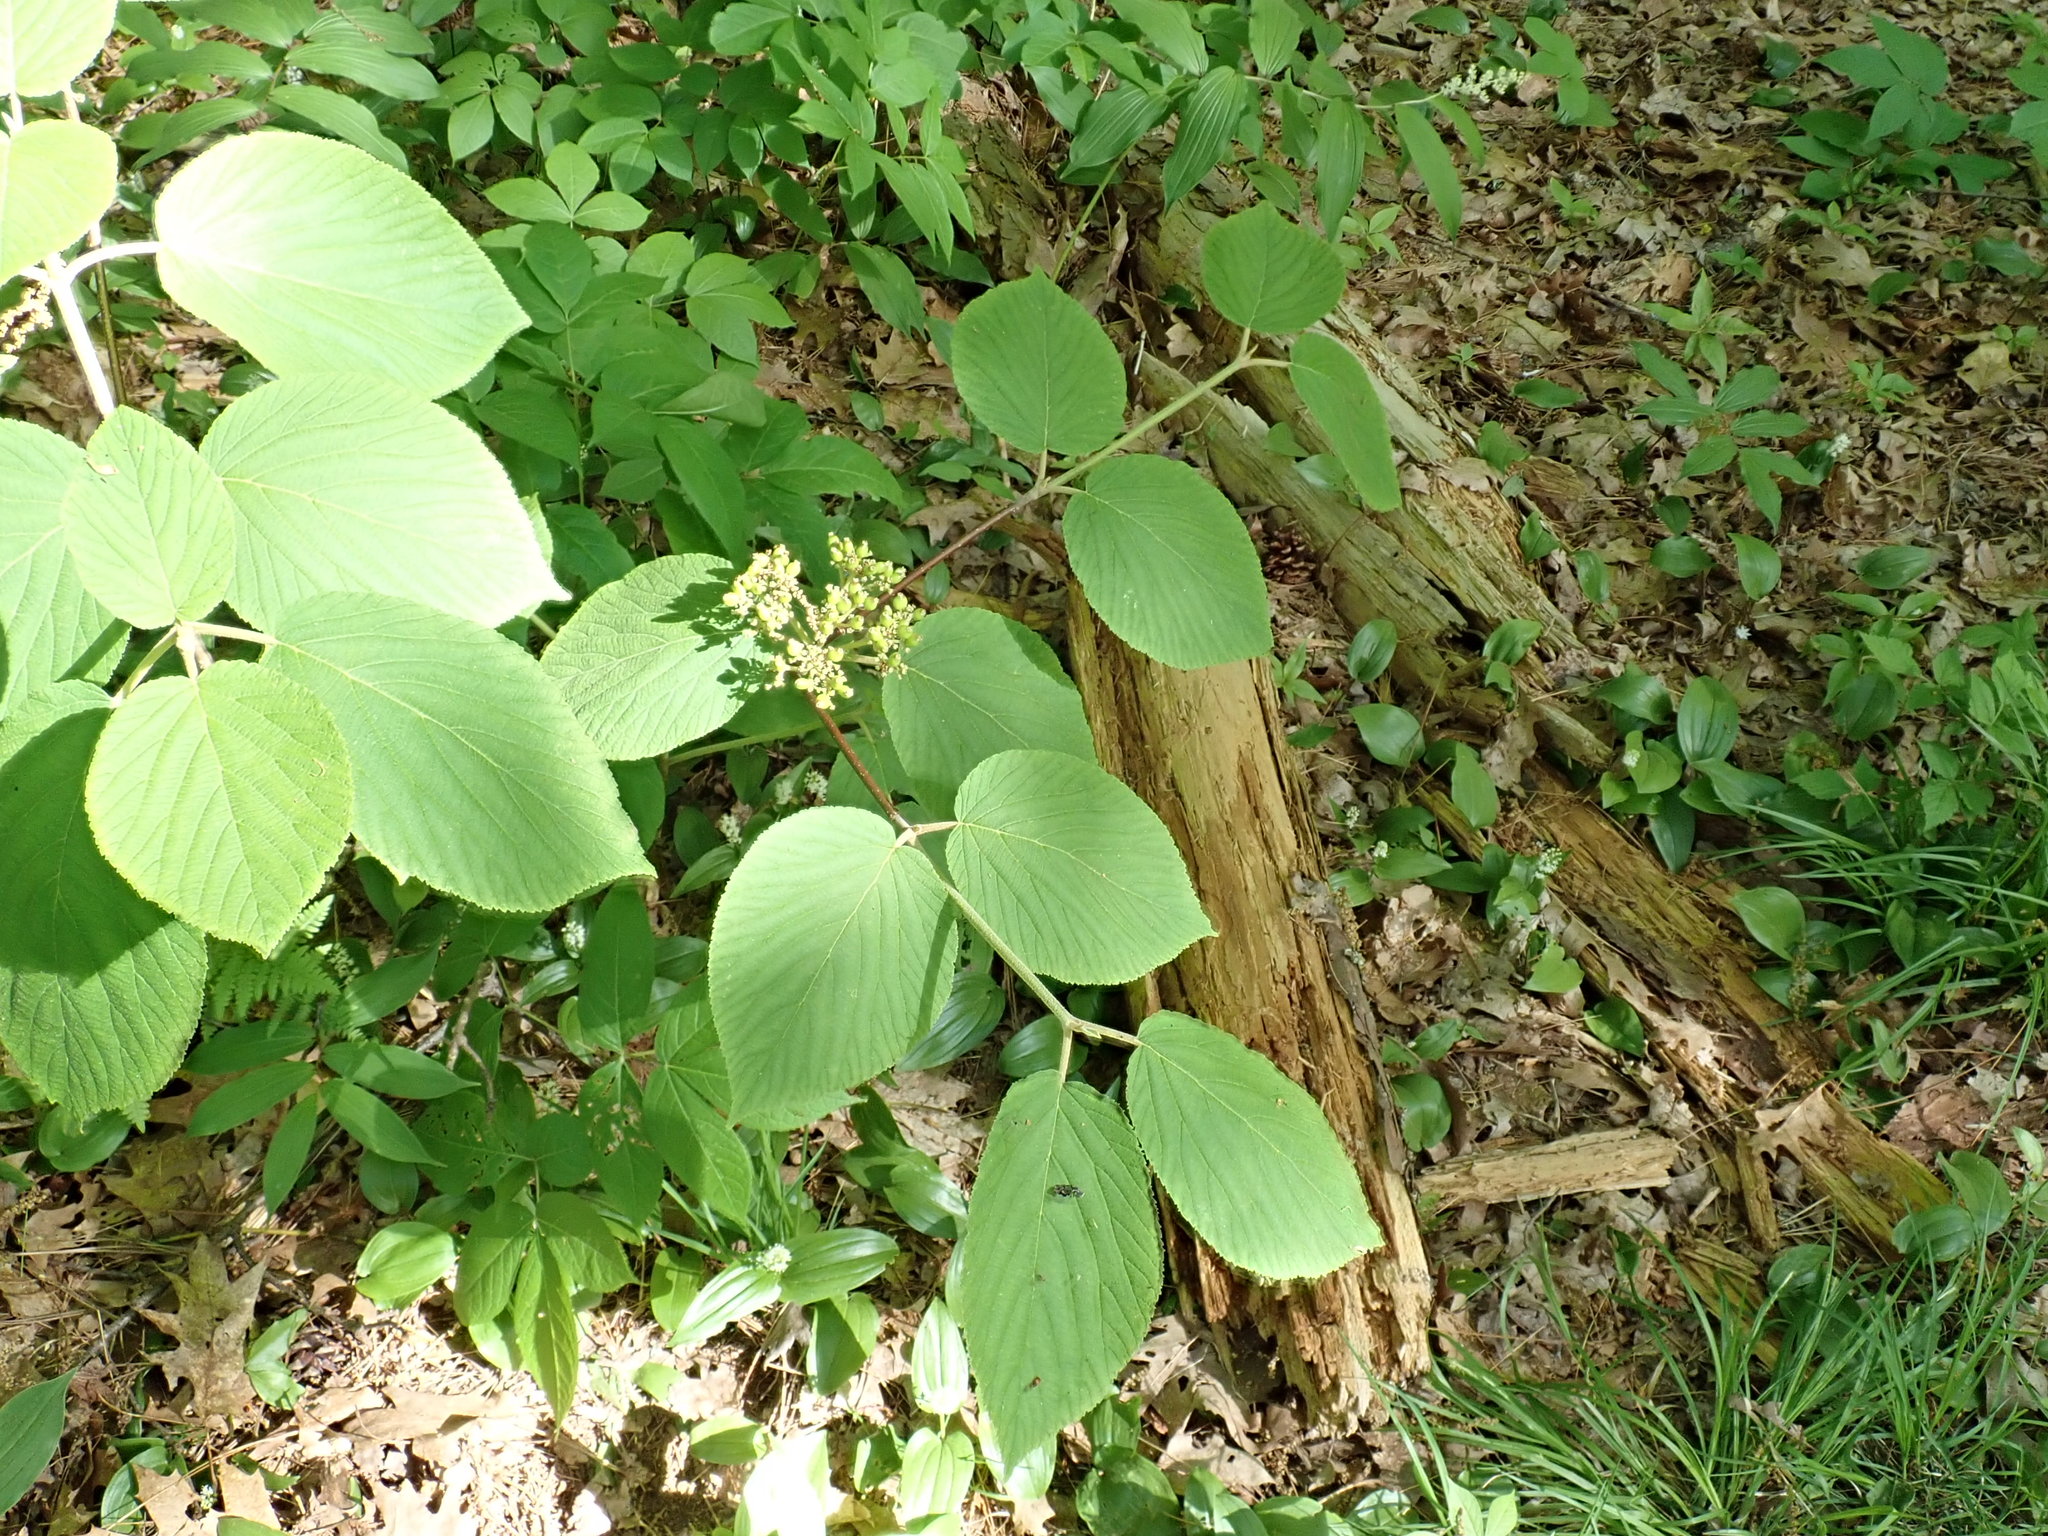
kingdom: Plantae
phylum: Tracheophyta
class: Magnoliopsida
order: Dipsacales
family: Viburnaceae
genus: Viburnum
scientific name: Viburnum lantanoides
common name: Hobblebush
